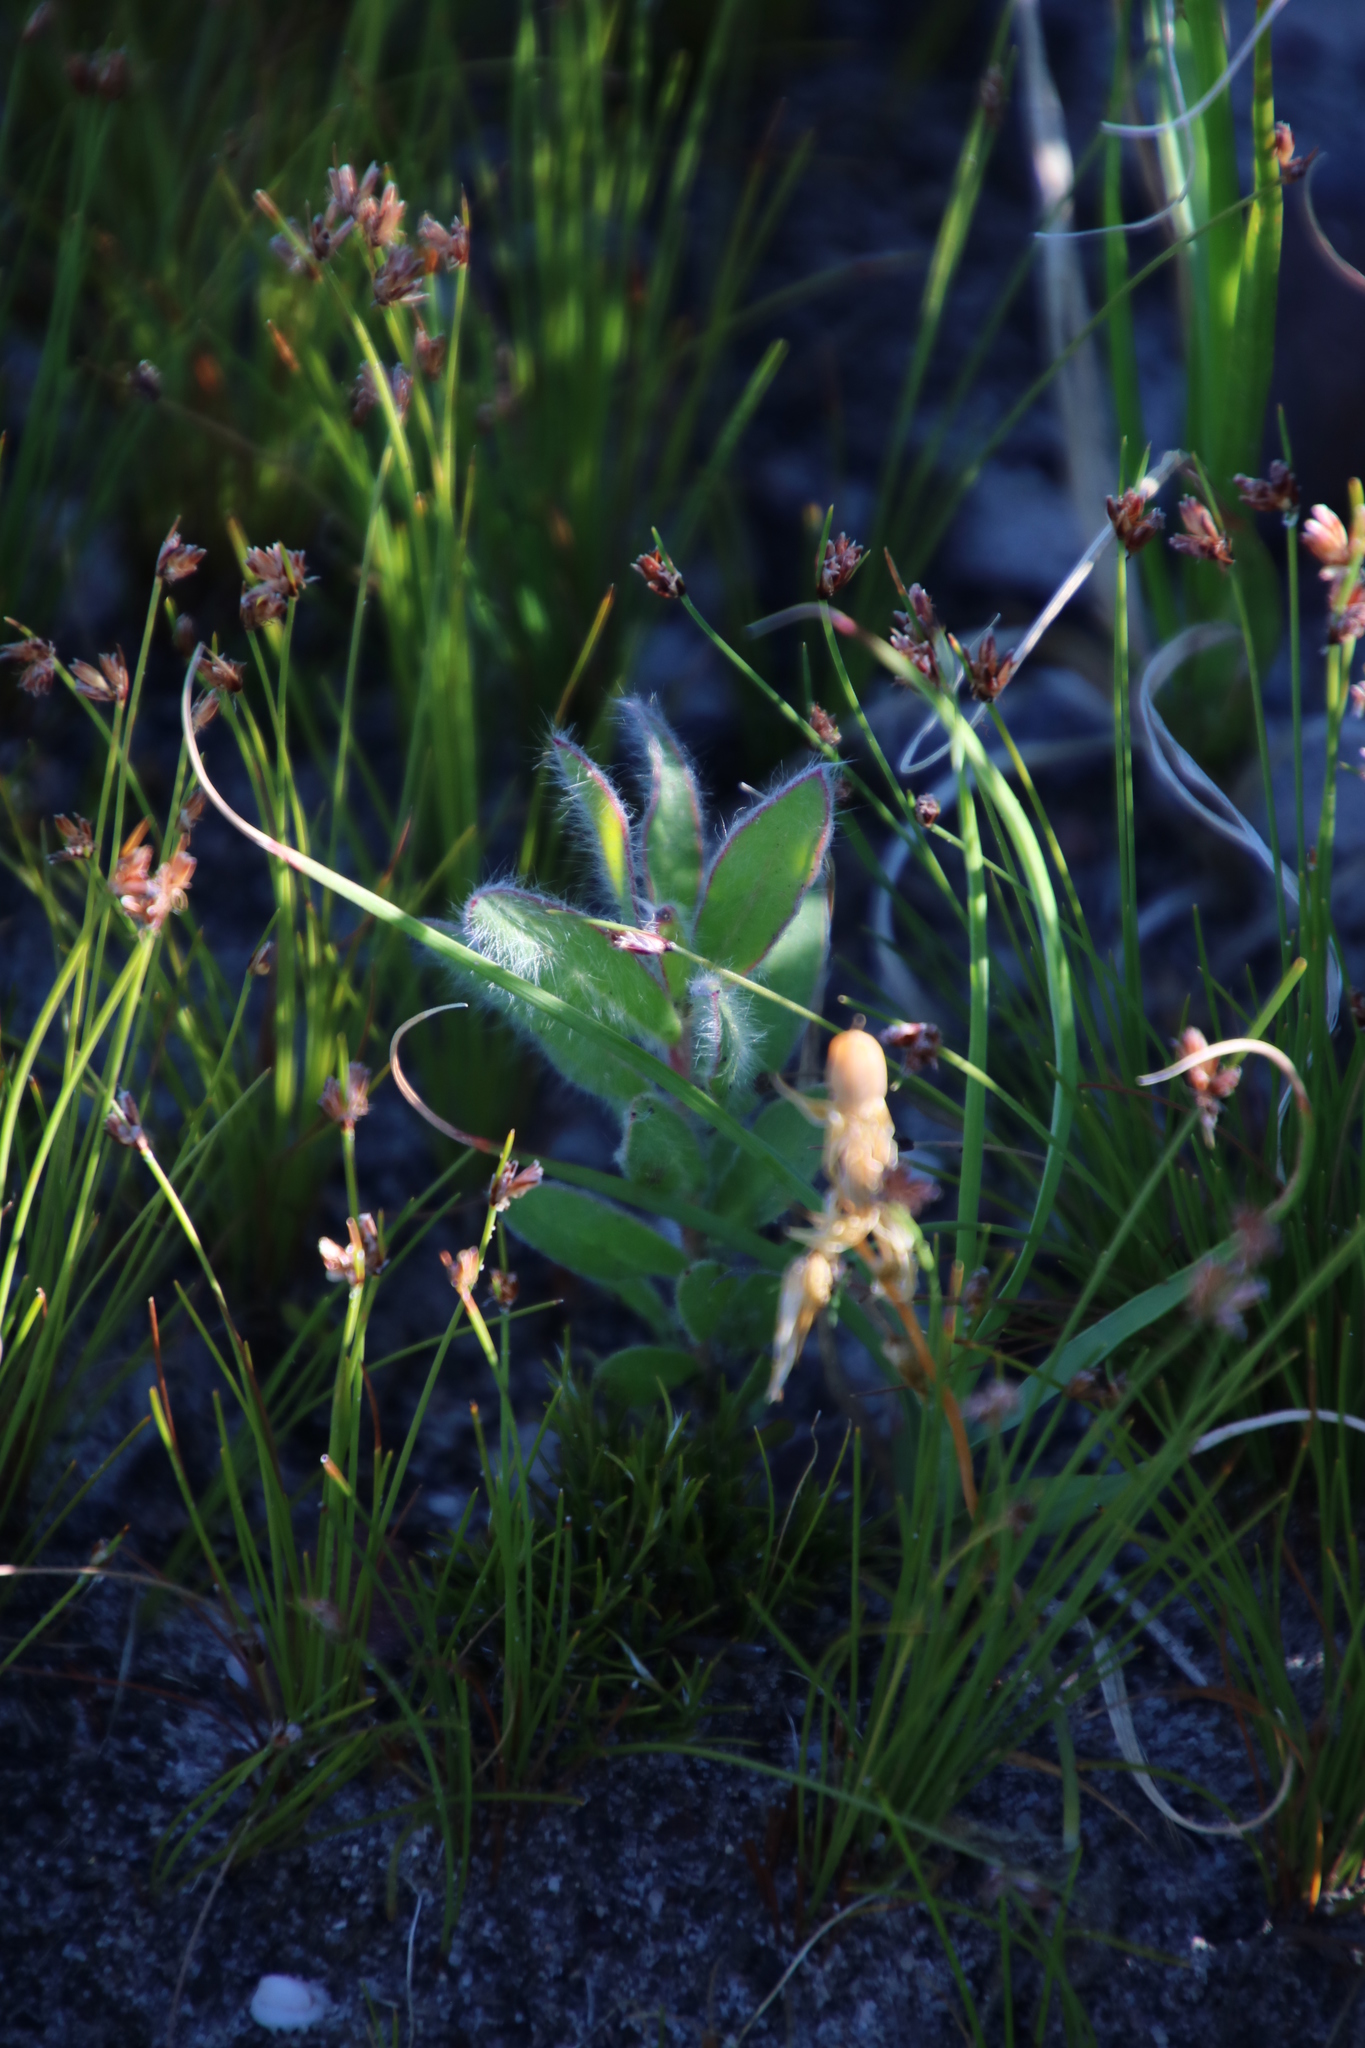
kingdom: Plantae
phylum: Tracheophyta
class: Magnoliopsida
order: Proteales
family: Proteaceae
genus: Protea
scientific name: Protea lepidocarpodendron
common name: Black-bearded protea
